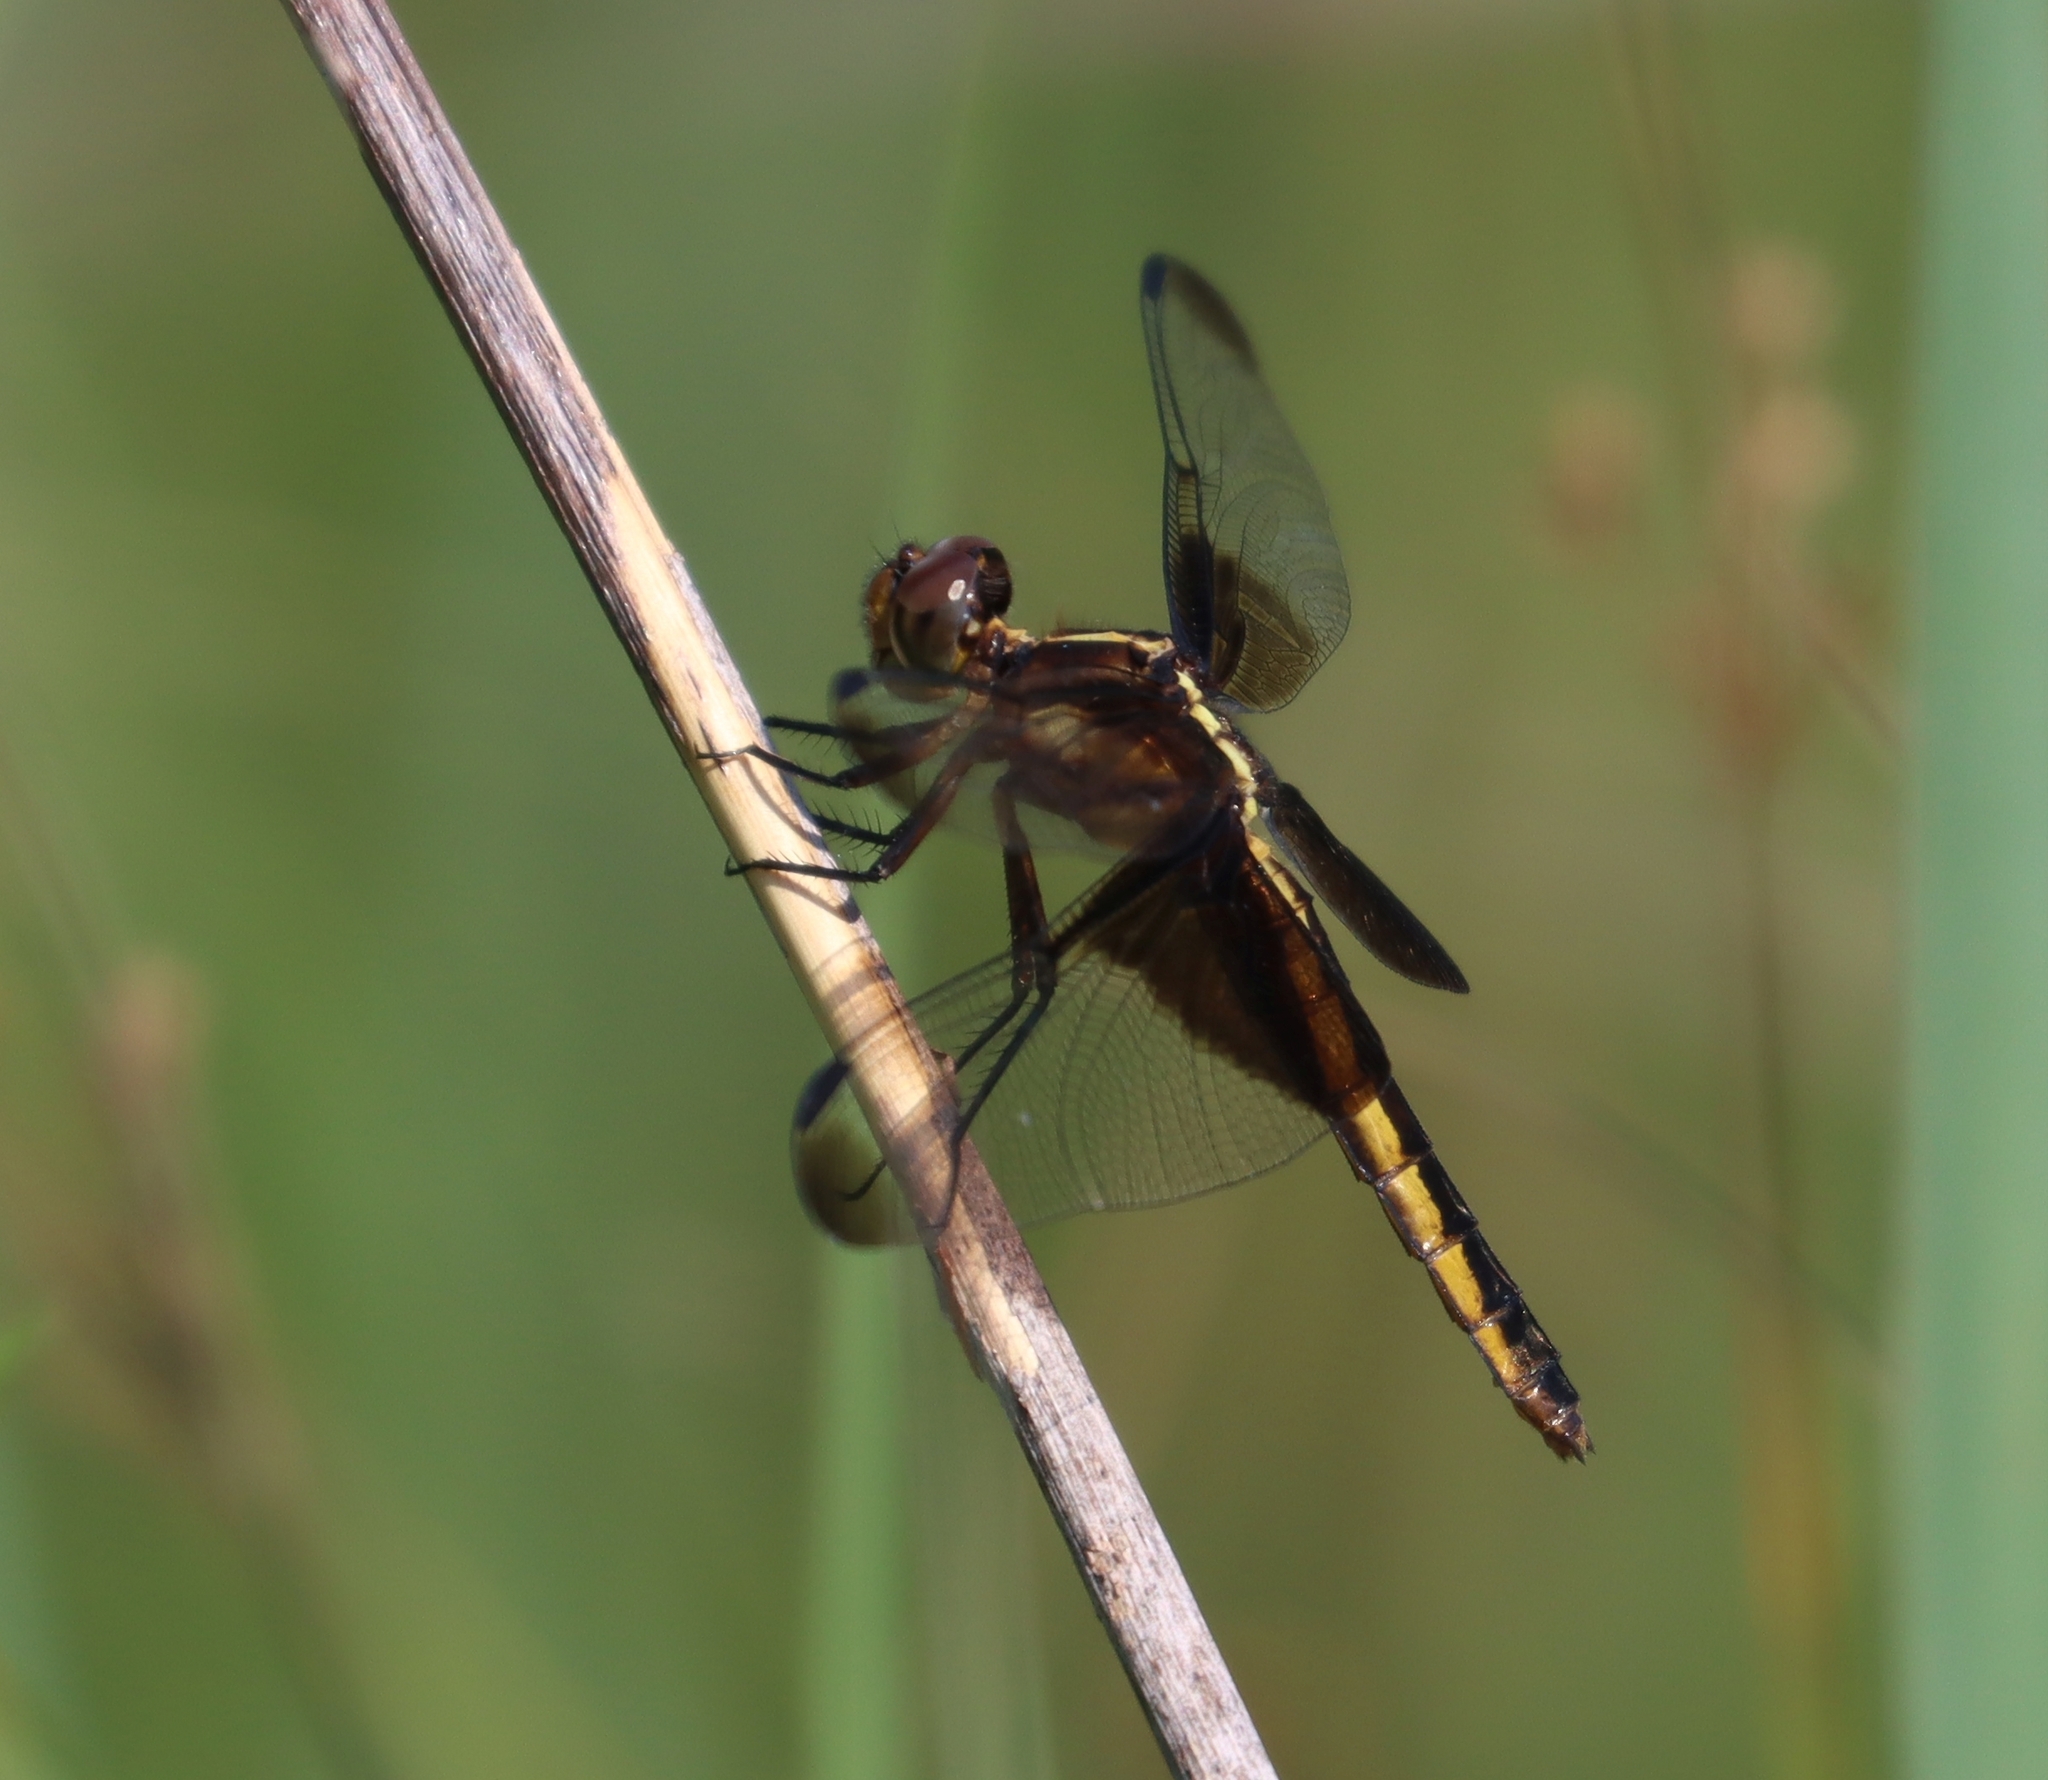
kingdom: Animalia
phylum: Arthropoda
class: Insecta
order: Odonata
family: Libellulidae
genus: Libellula
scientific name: Libellula luctuosa
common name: Widow skimmer
